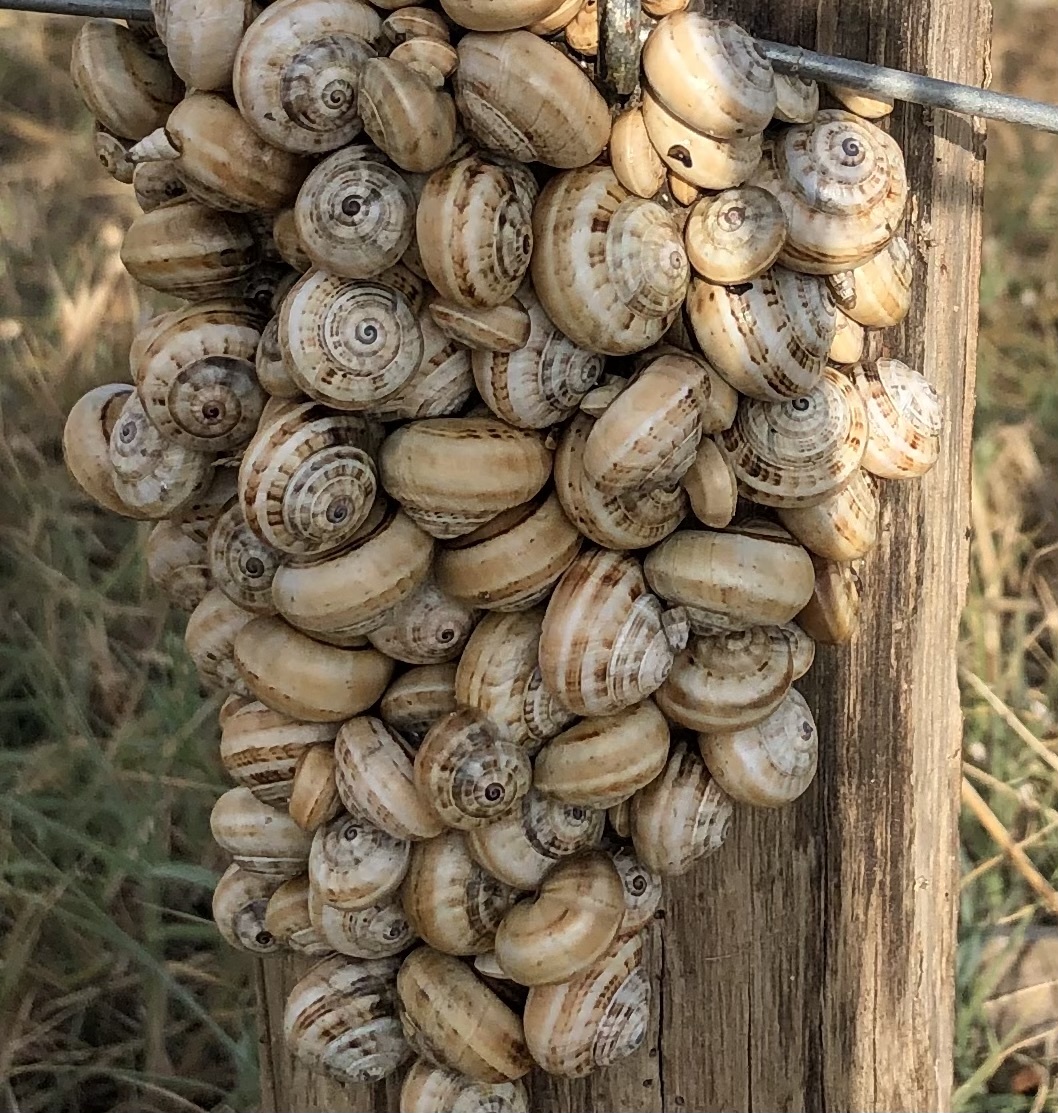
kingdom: Animalia
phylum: Mollusca
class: Gastropoda
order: Stylommatophora
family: Helicidae
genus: Theba
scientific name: Theba pisana
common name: White snail
